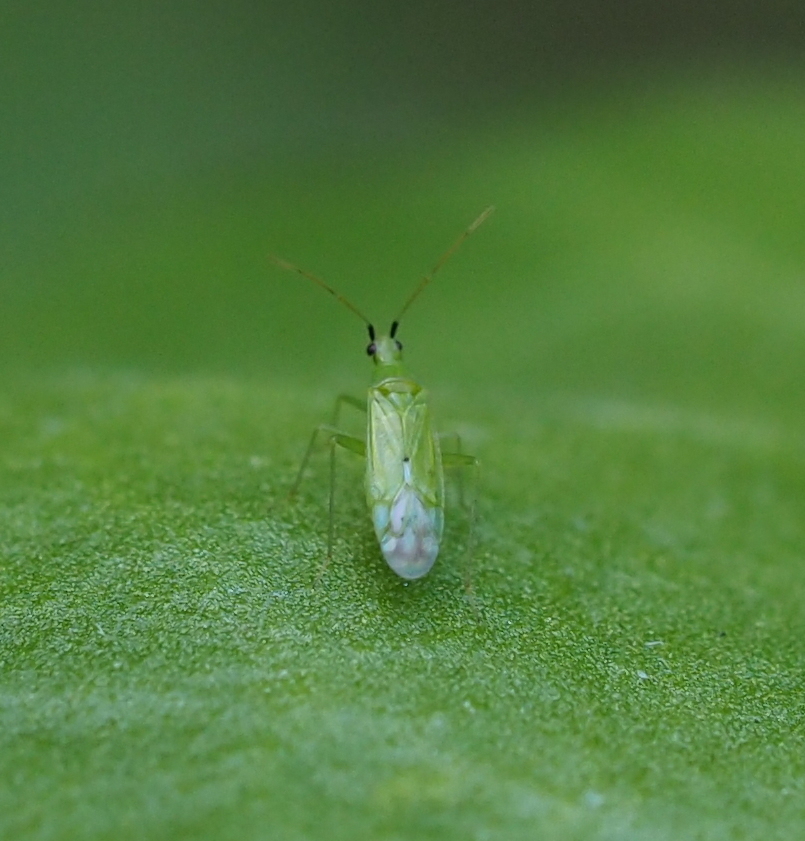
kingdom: Animalia
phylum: Arthropoda
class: Insecta
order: Hemiptera
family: Miridae
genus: Macrolophus
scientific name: Macrolophus pygmaeus
